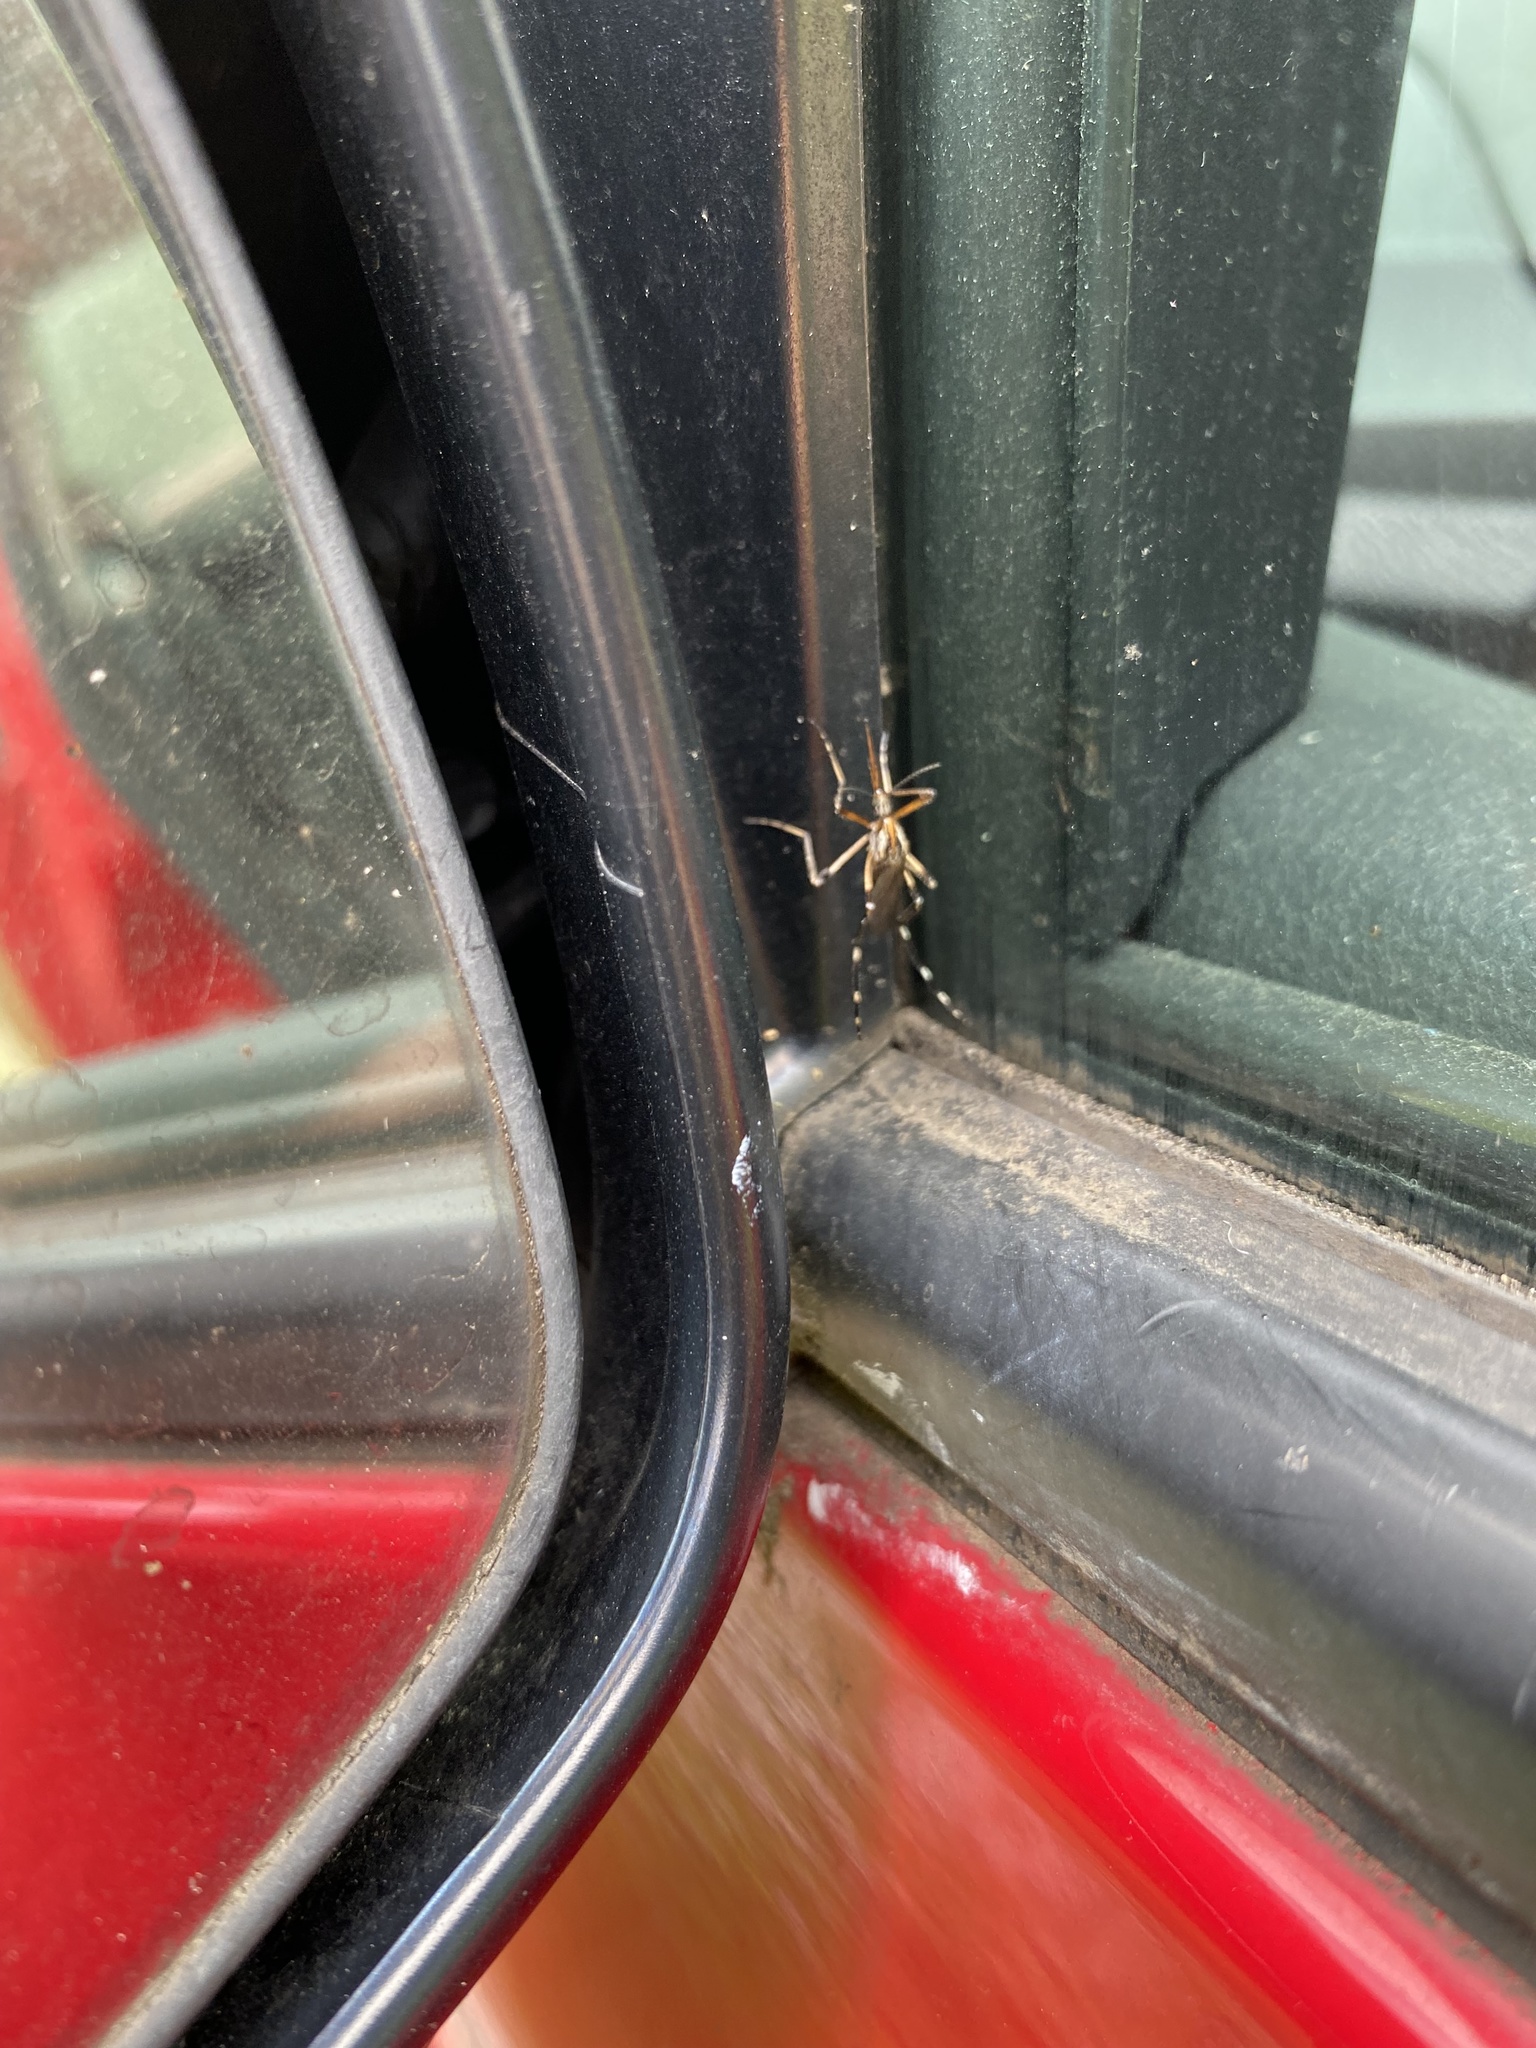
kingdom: Animalia
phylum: Arthropoda
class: Insecta
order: Diptera
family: Culicidae
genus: Psorophora
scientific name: Psorophora ciliata
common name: Gallinipper
